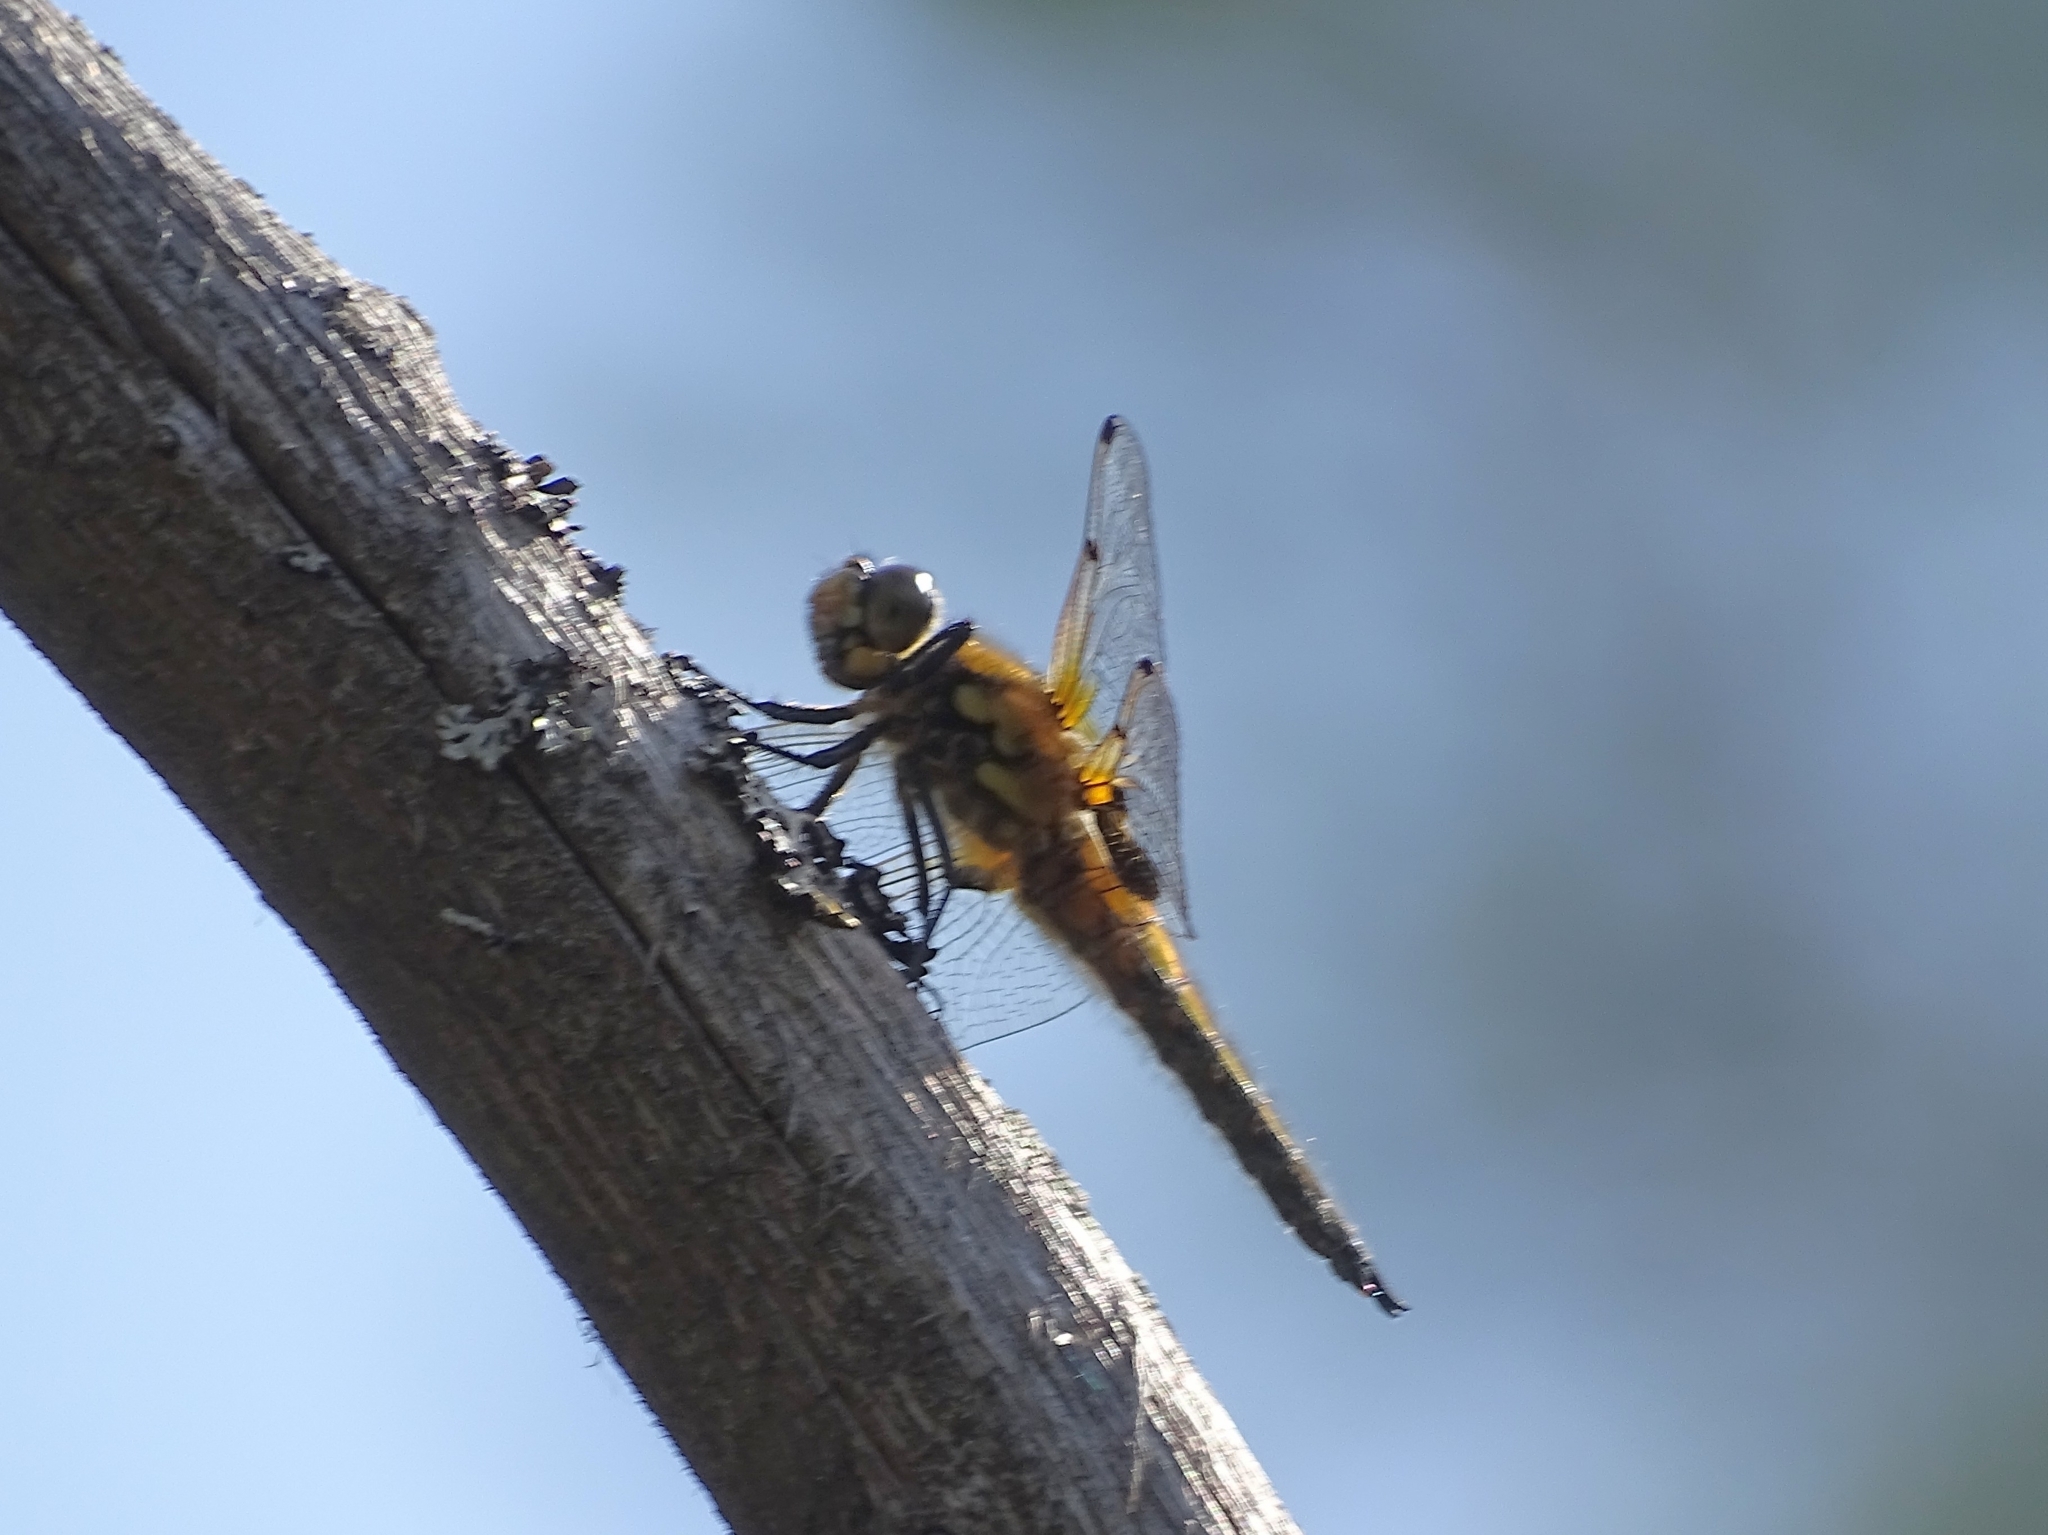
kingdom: Animalia
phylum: Arthropoda
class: Insecta
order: Odonata
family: Libellulidae
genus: Libellula
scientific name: Libellula quadrimaculata
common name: Four-spotted chaser
